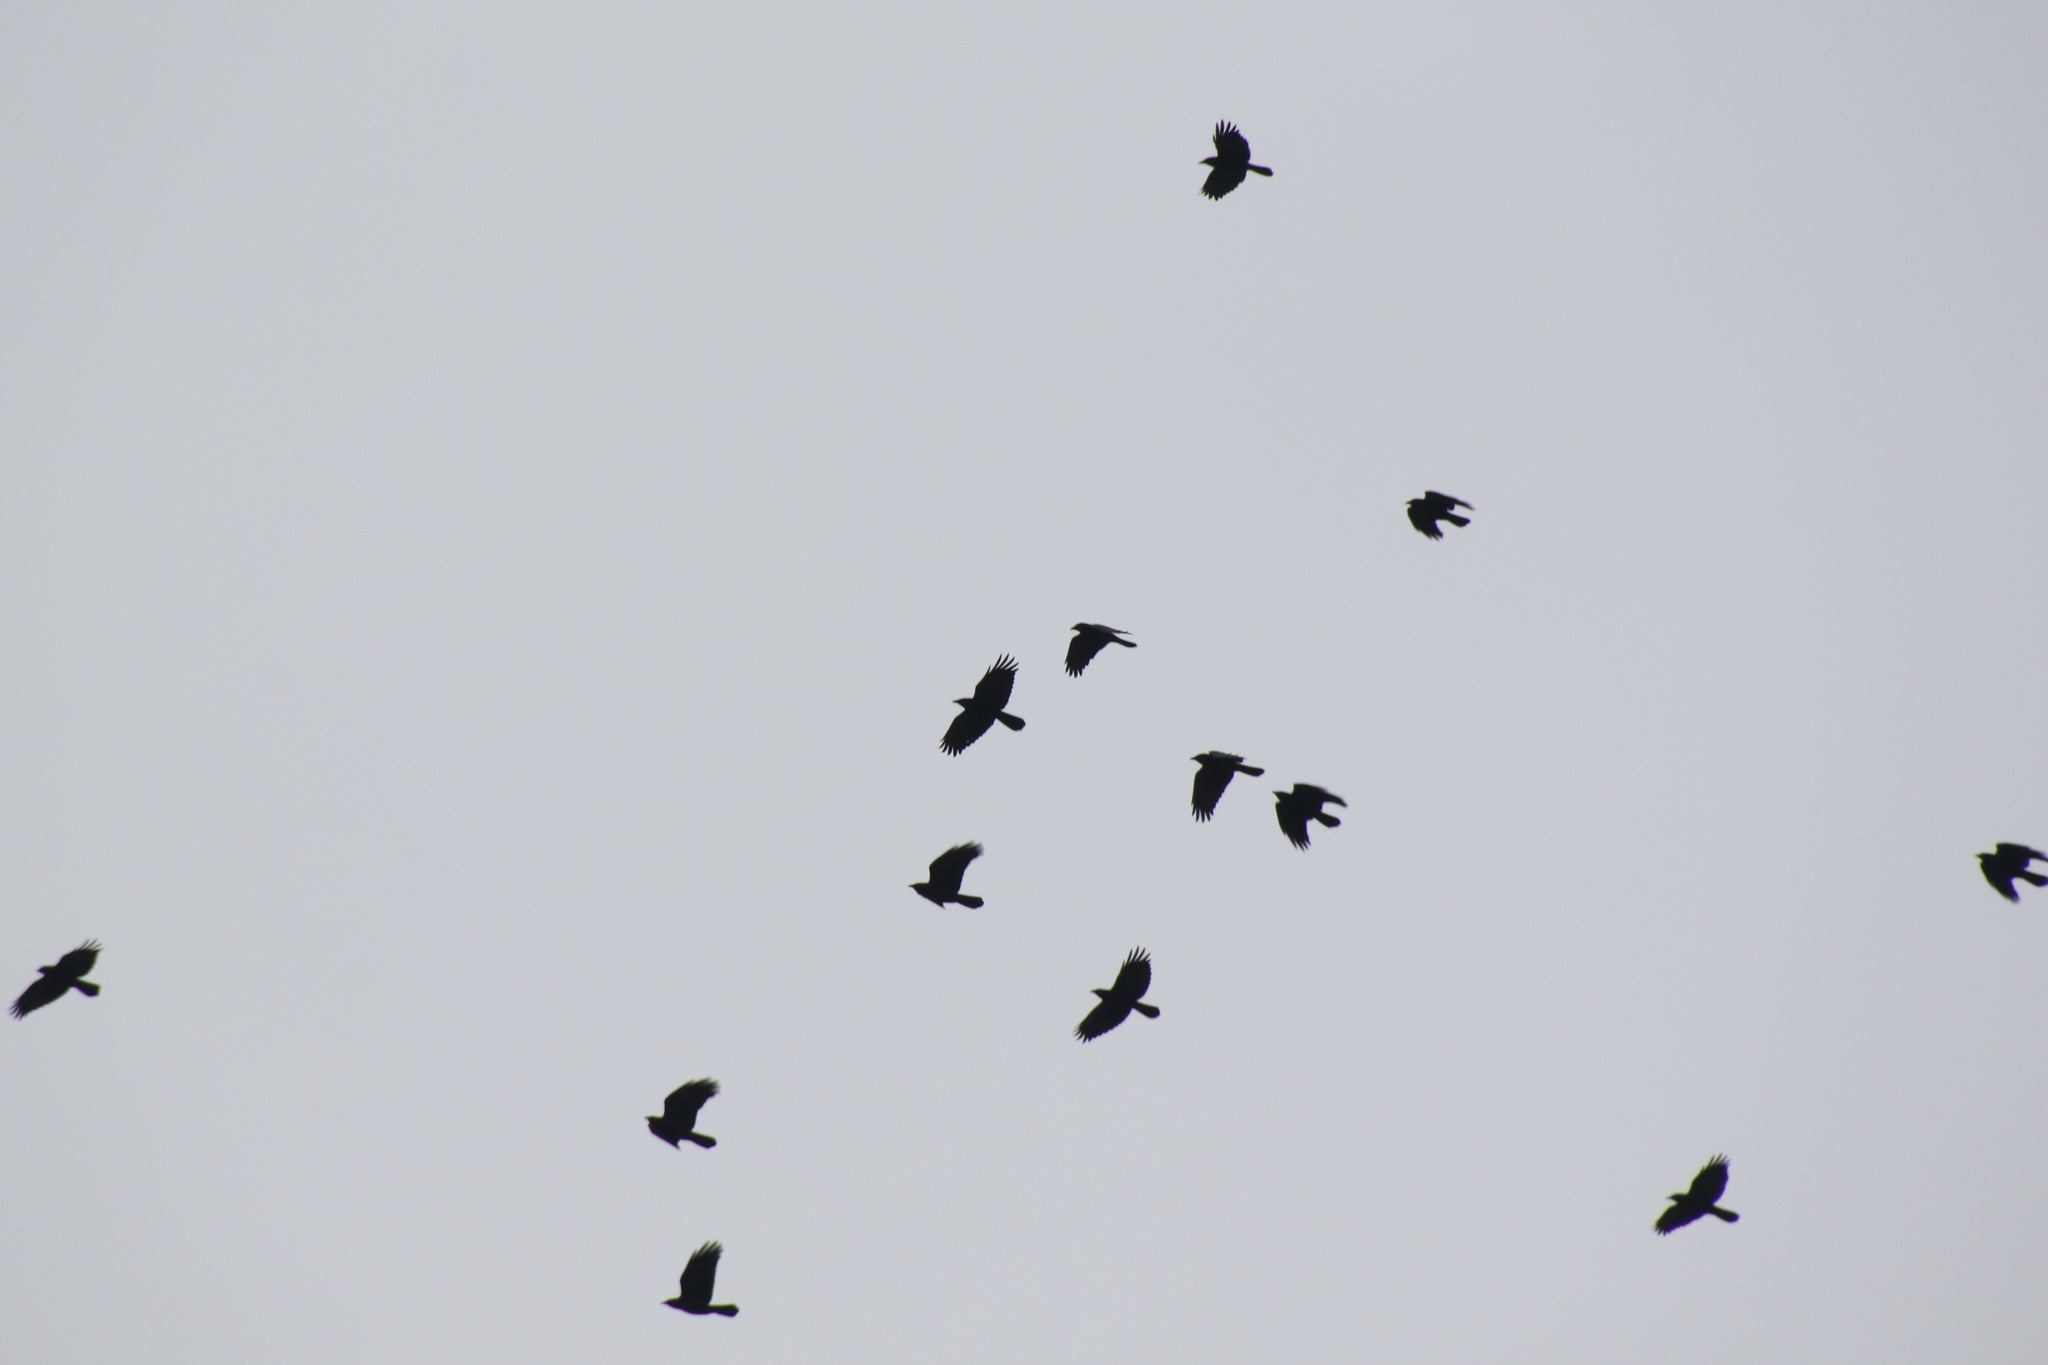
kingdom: Animalia
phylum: Chordata
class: Aves
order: Passeriformes
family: Corvidae
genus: Corvus
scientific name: Corvus ossifragus
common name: Fish crow
